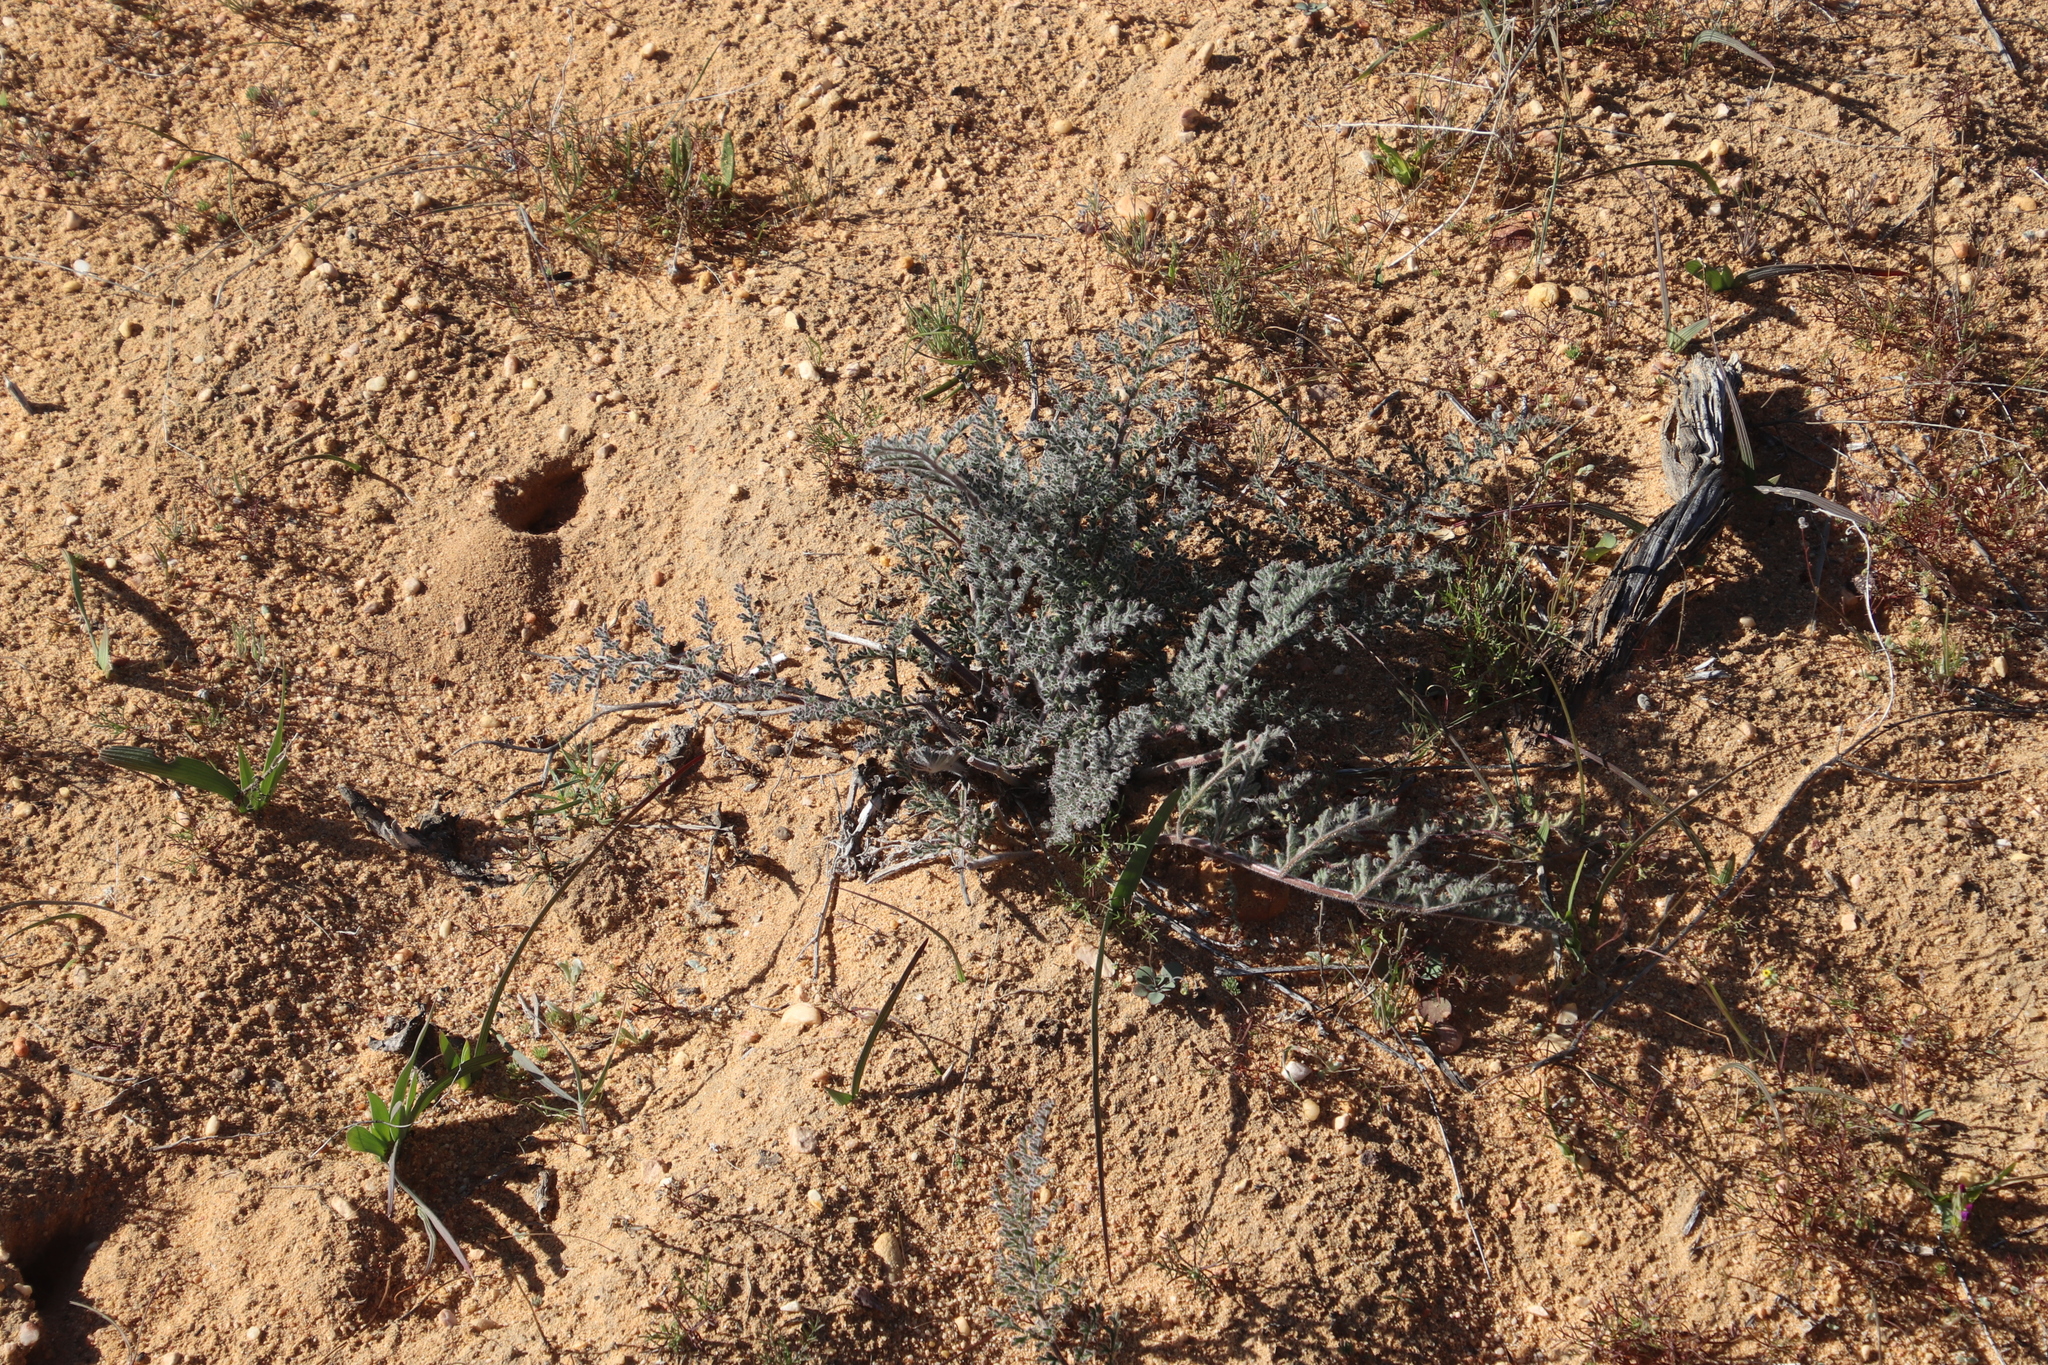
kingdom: Plantae
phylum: Tracheophyta
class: Magnoliopsida
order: Geraniales
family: Geraniaceae
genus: Pelargonium
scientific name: Pelargonium triste
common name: Night-scent pelargonium
